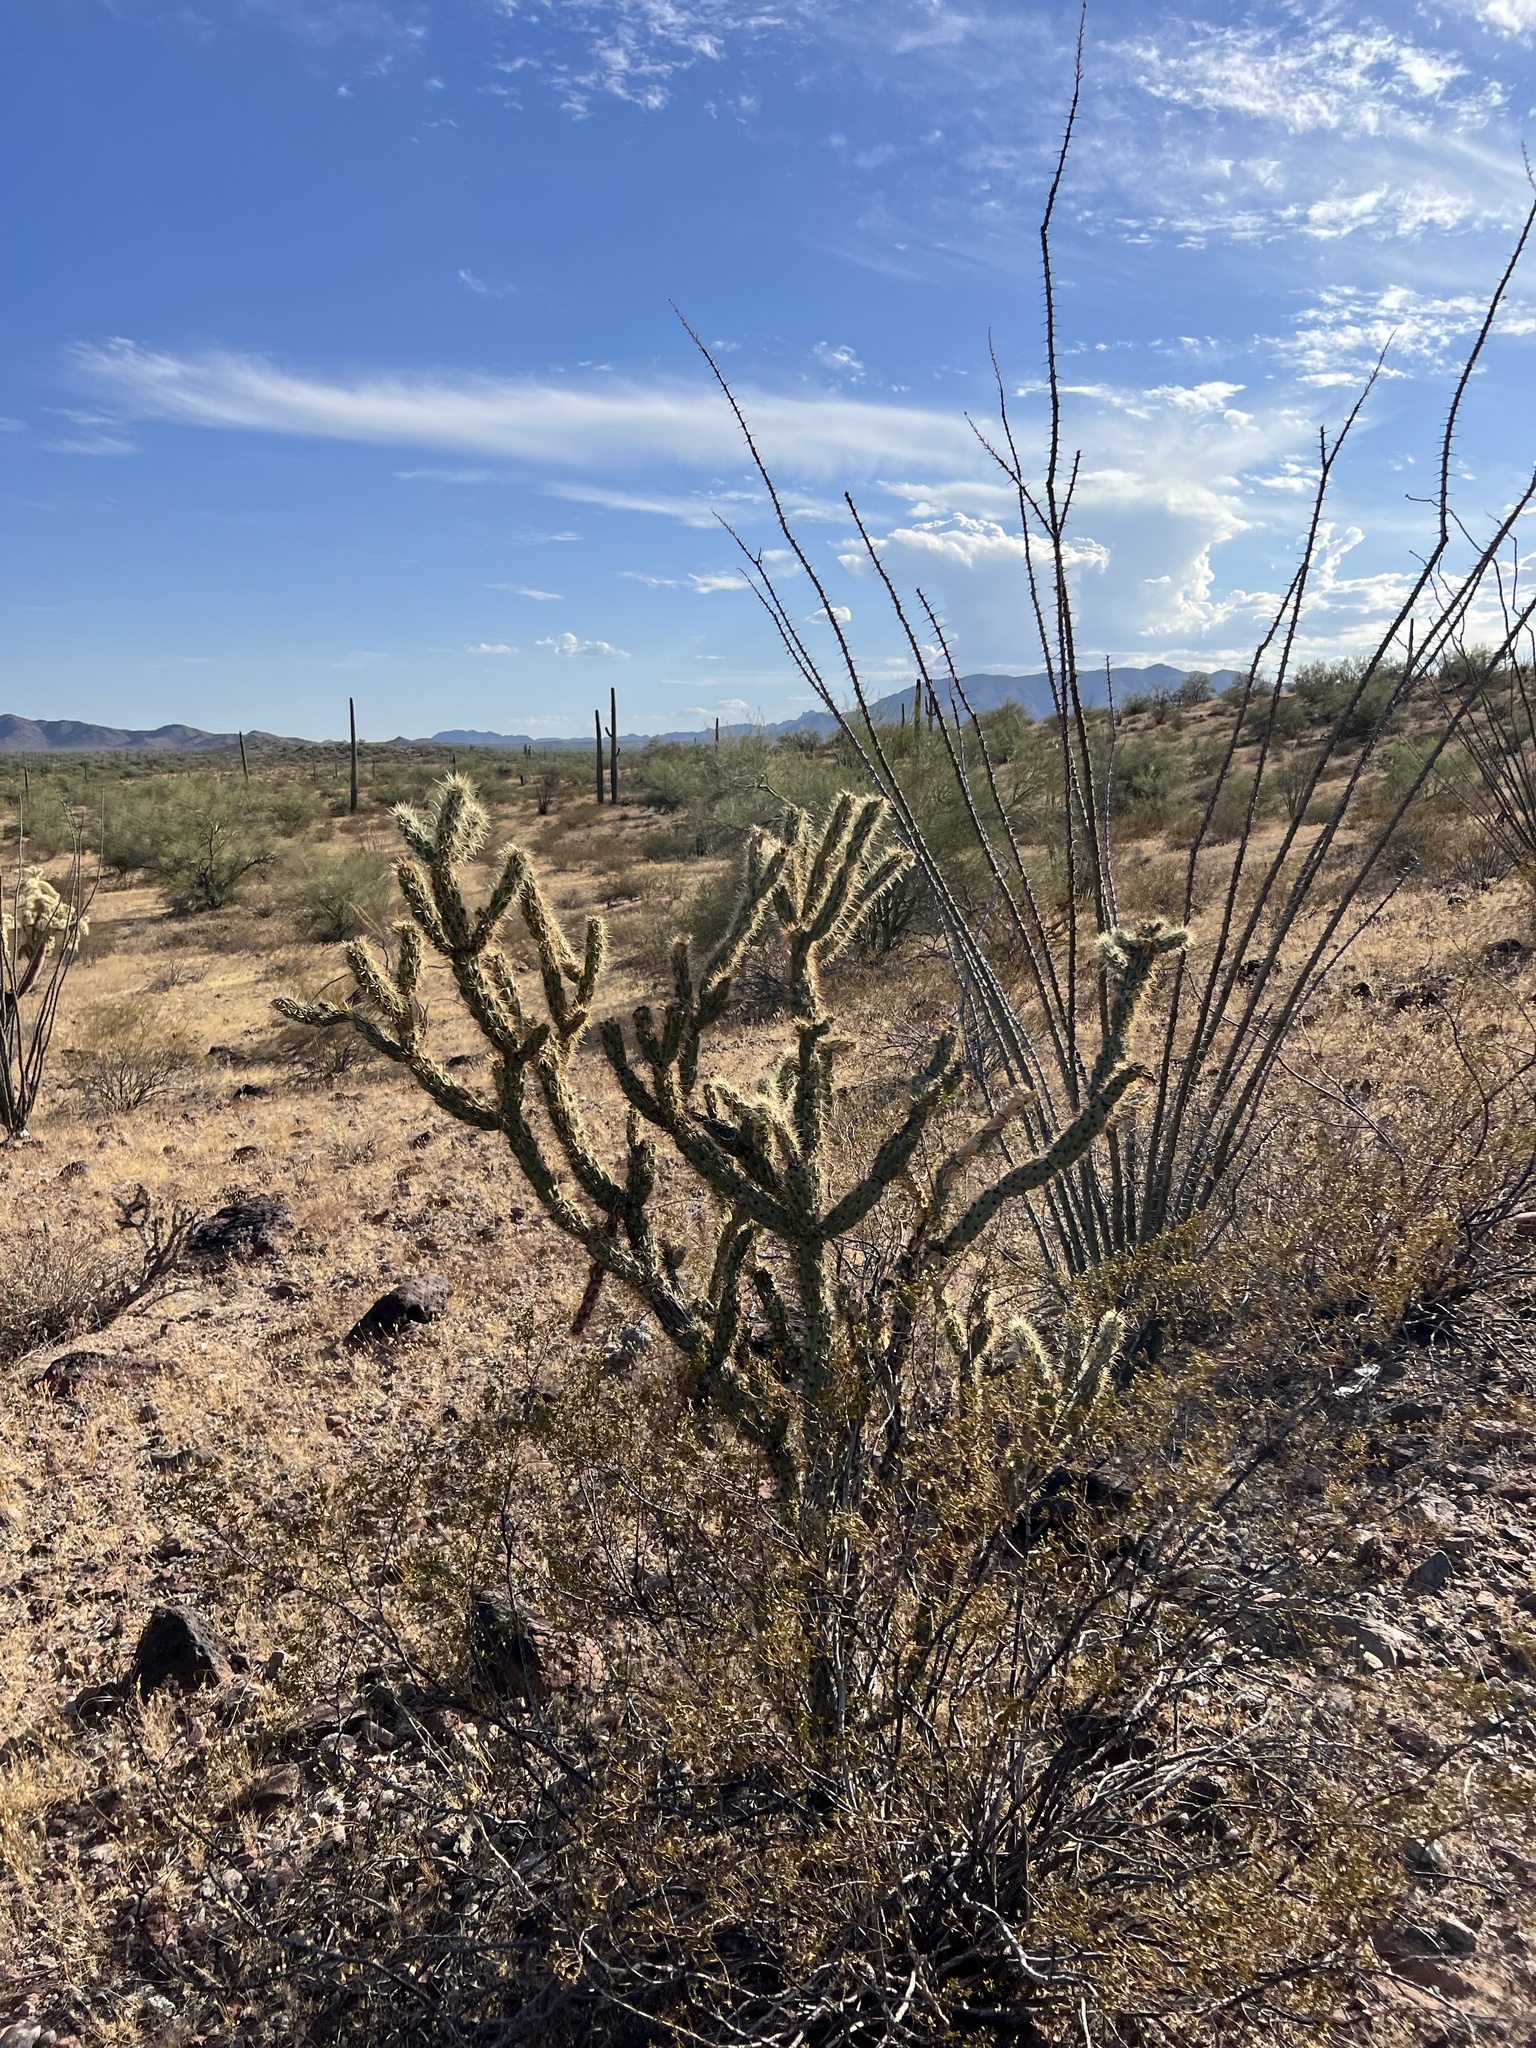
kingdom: Plantae
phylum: Tracheophyta
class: Magnoliopsida
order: Caryophyllales
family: Cactaceae
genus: Cylindropuntia
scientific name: Cylindropuntia acanthocarpa
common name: Buckhorn cholla
